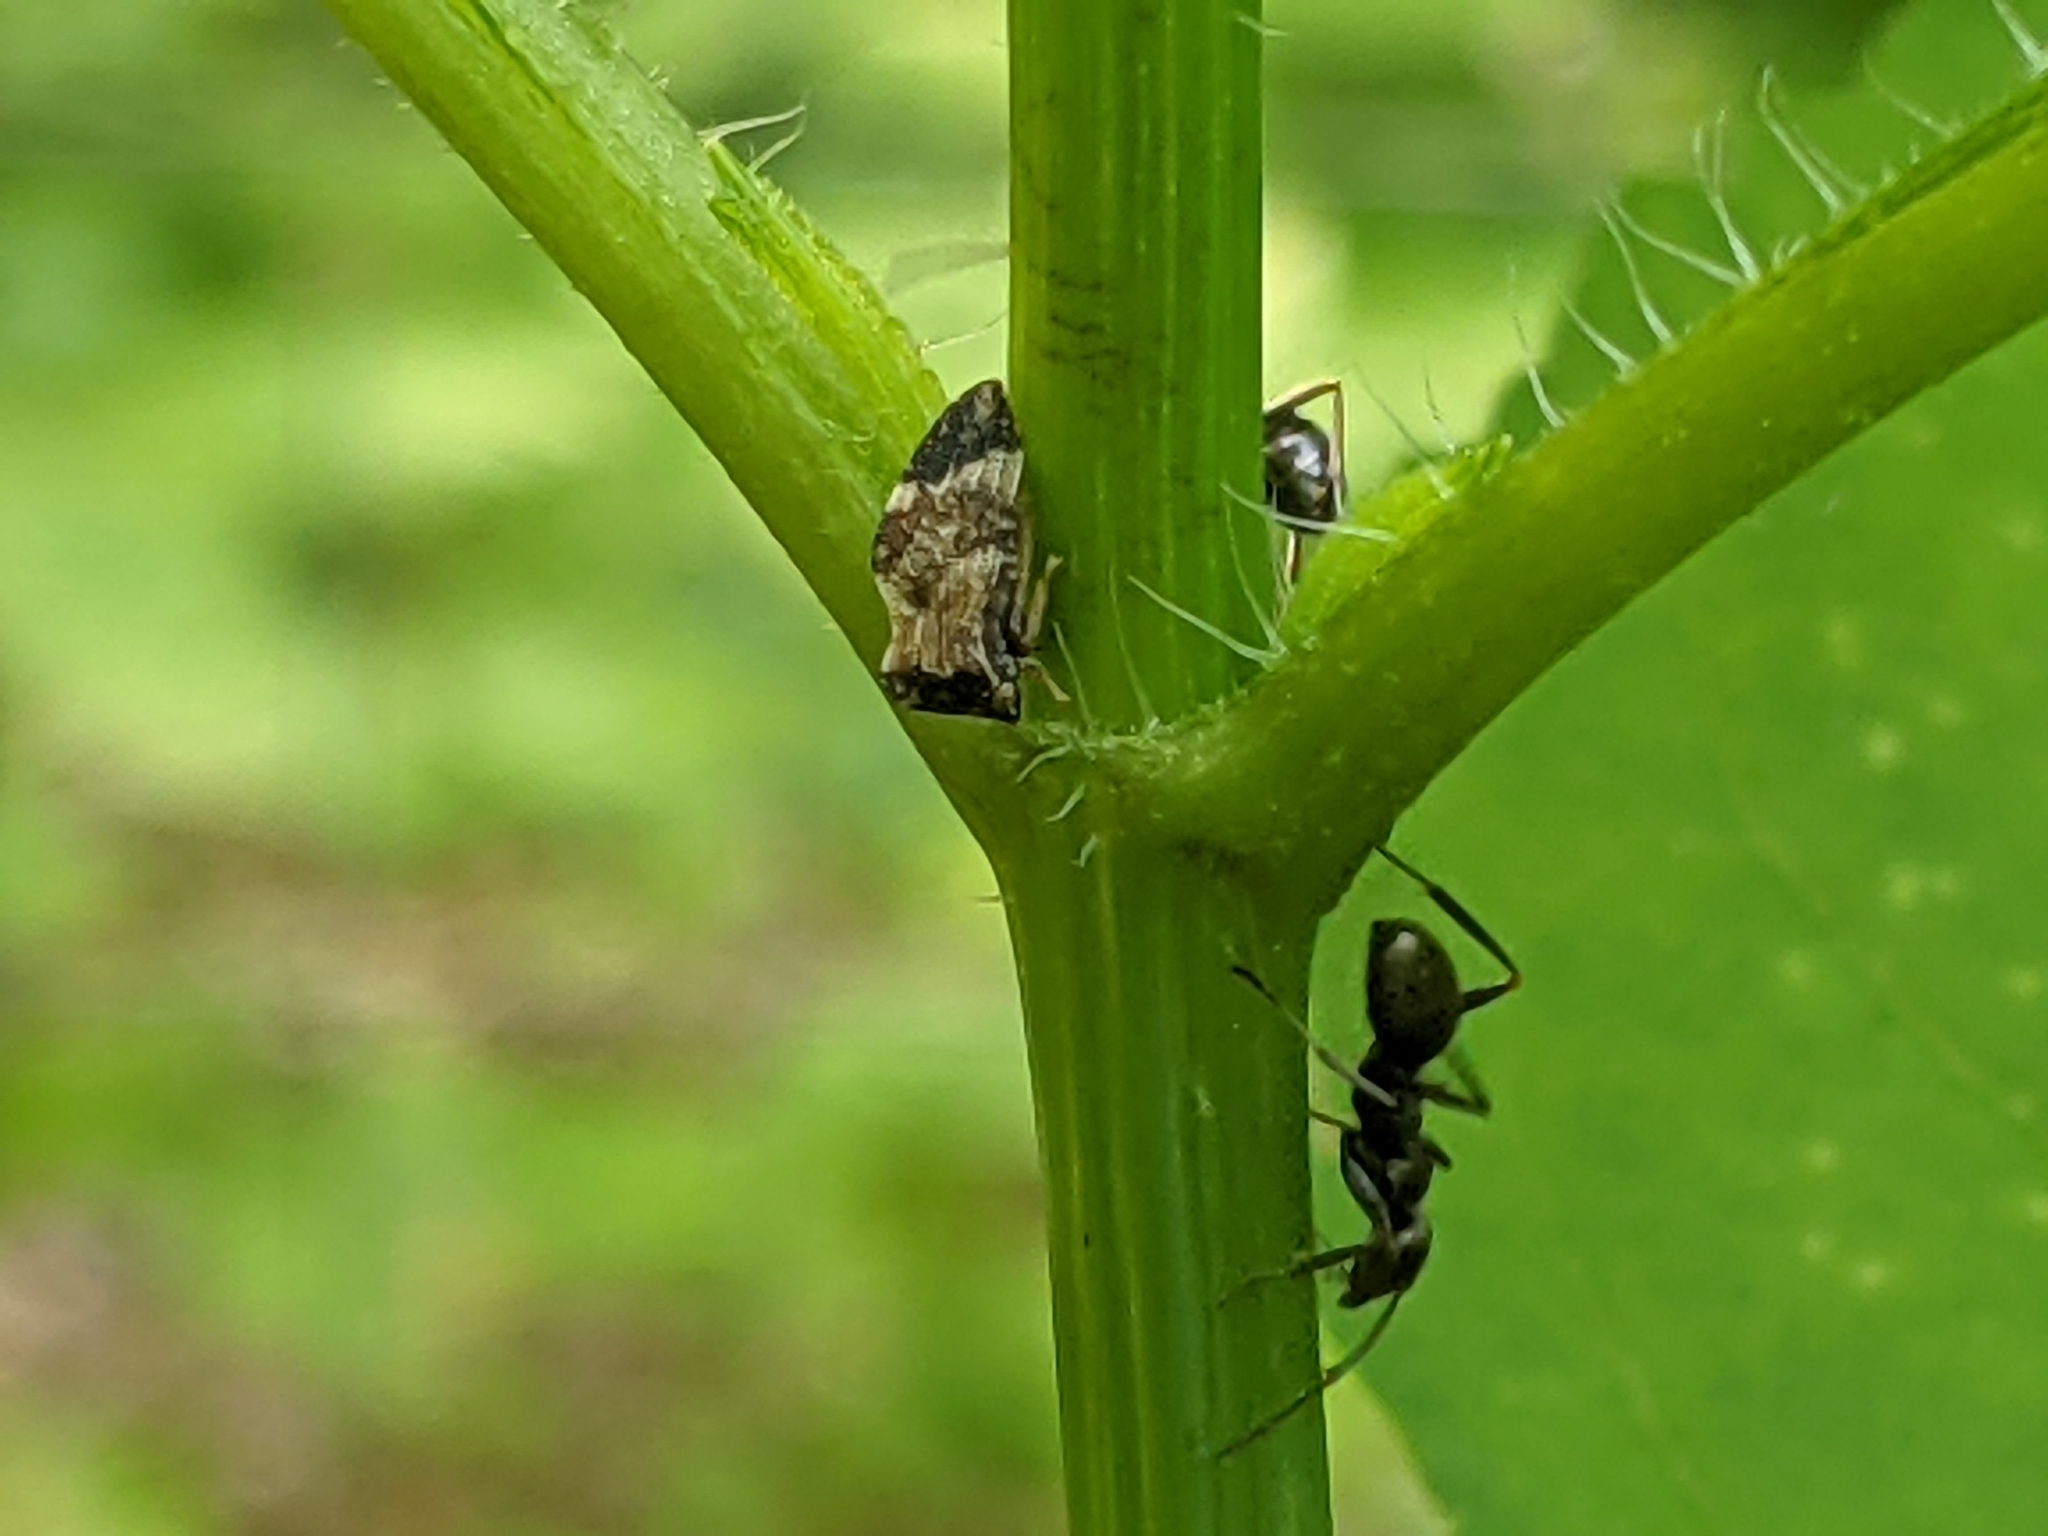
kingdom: Animalia
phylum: Arthropoda
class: Insecta
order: Hemiptera
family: Membracidae
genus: Publilia
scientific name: Publilia concava
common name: Aster treehopper
